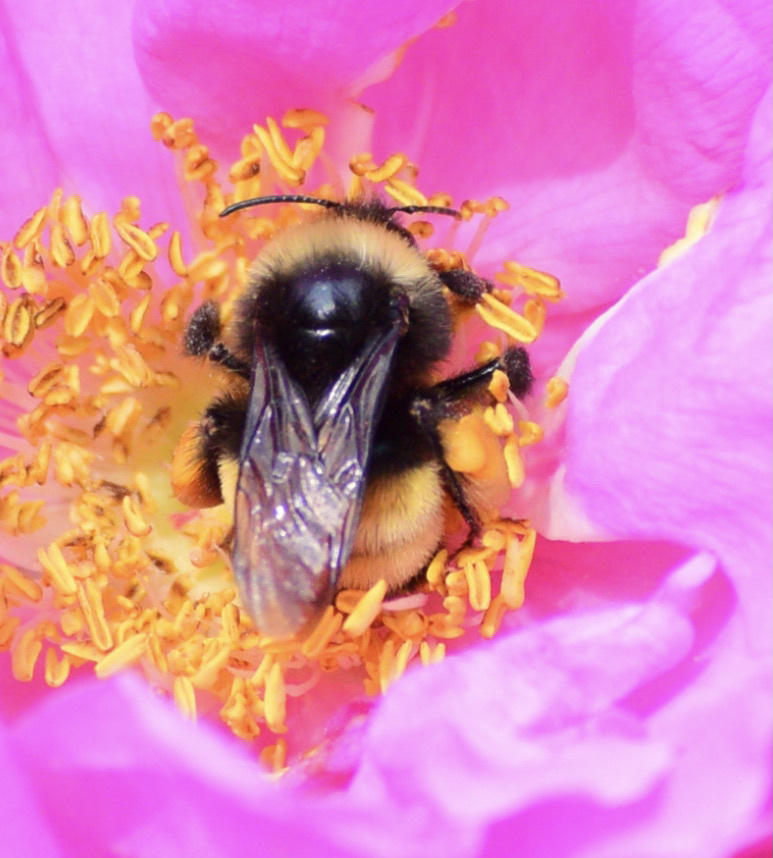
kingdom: Animalia
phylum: Arthropoda
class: Insecta
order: Hymenoptera
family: Apidae
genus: Bombus
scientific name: Bombus terricola
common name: Yellow-banded bumble bee
